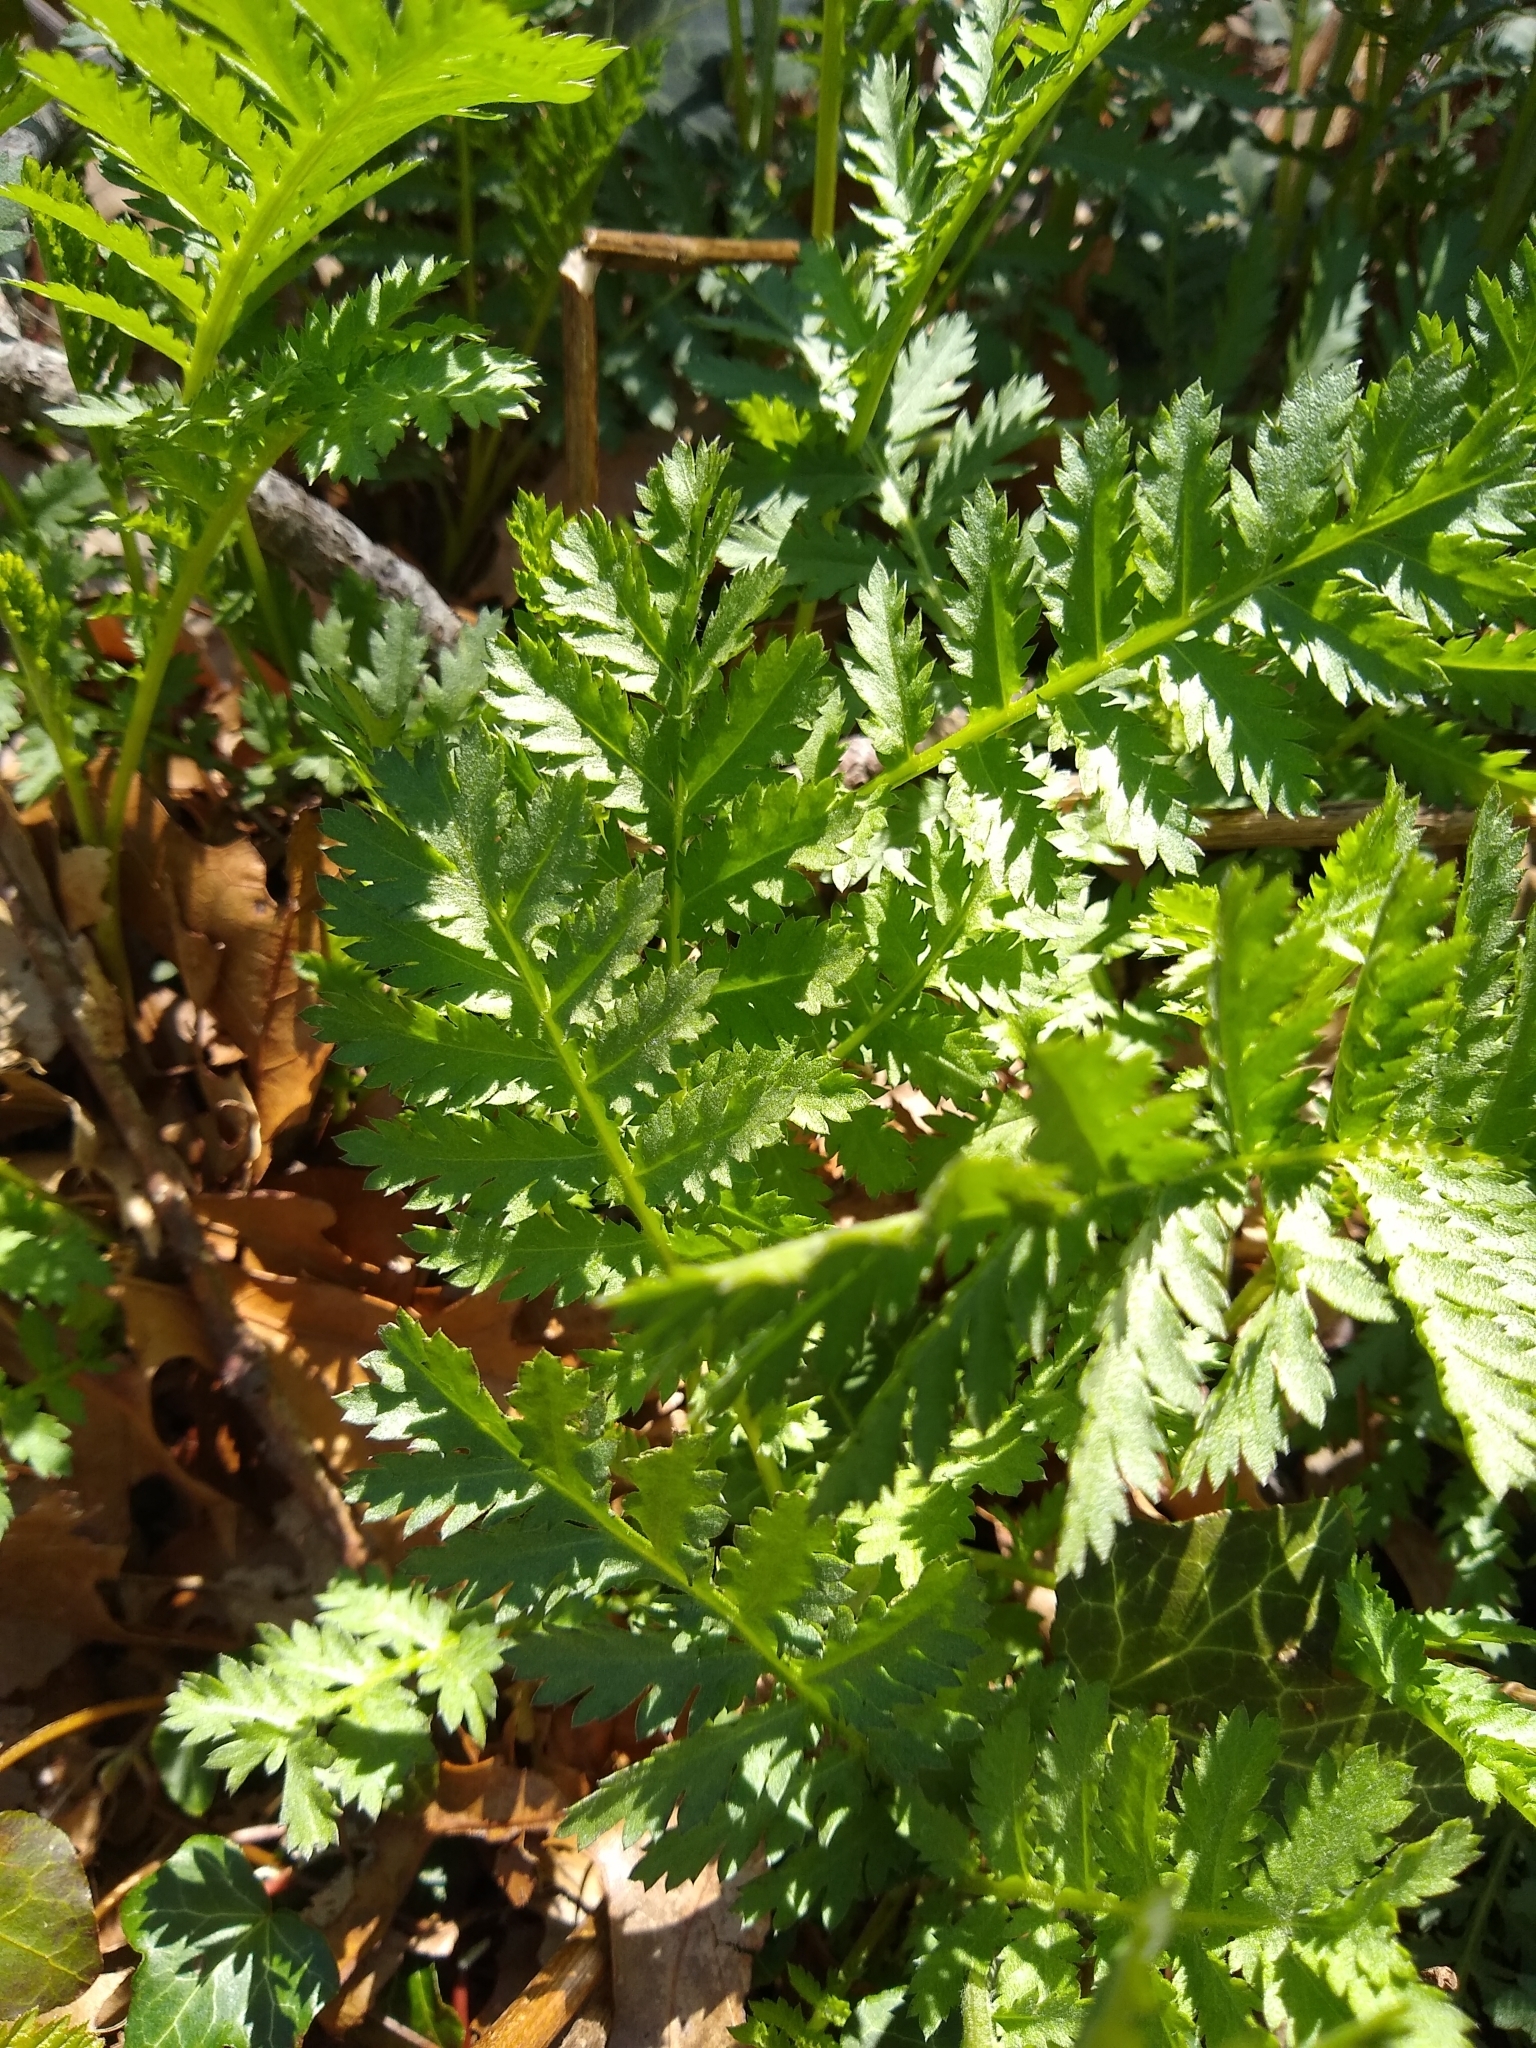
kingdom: Plantae
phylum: Tracheophyta
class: Magnoliopsida
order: Asterales
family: Asteraceae
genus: Tanacetum
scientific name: Tanacetum vulgare
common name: Common tansy
